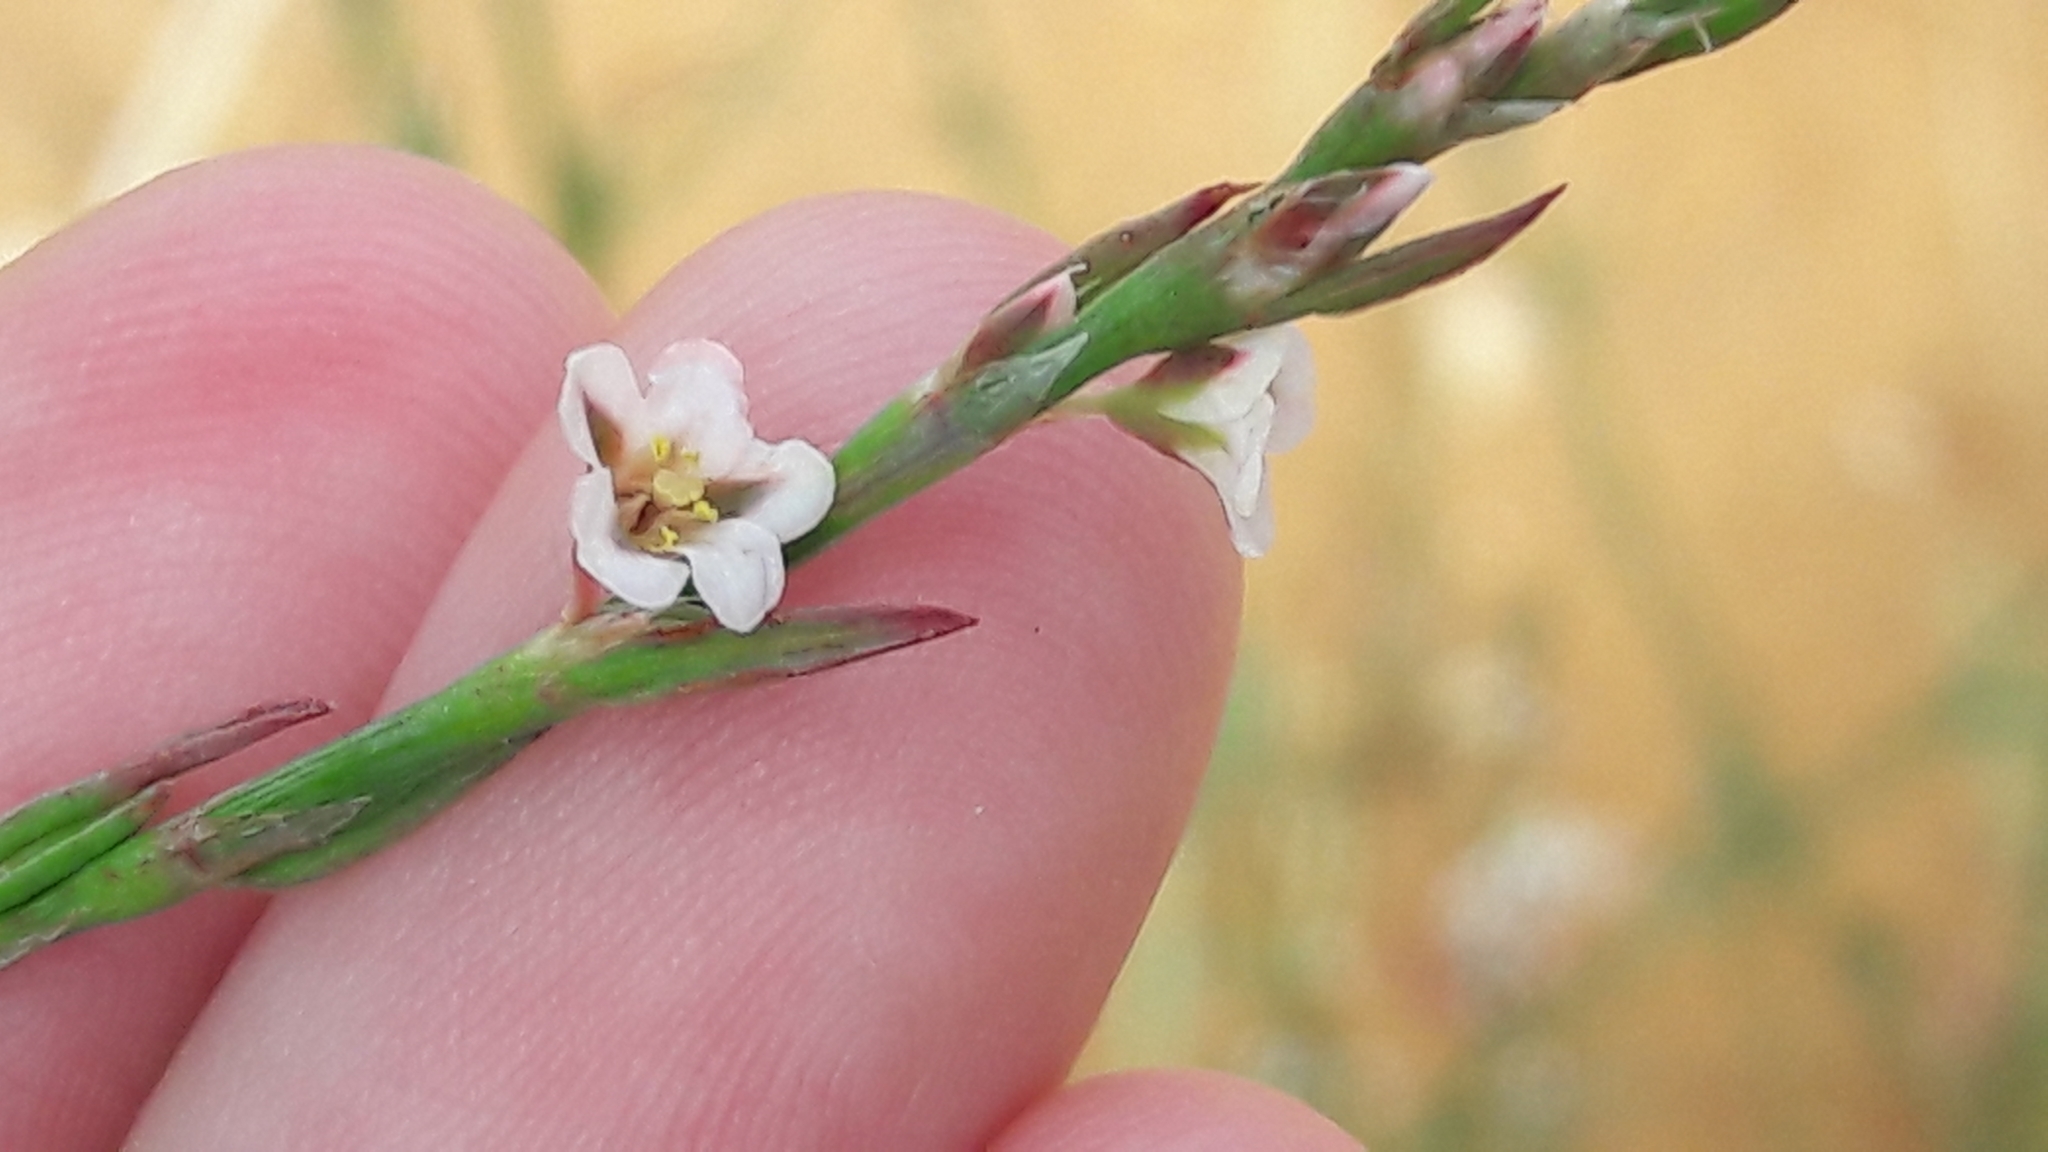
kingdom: Plantae
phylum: Tracheophyta
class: Magnoliopsida
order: Caryophyllales
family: Polygonaceae
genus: Polygonum
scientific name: Polygonum equisetiforme
